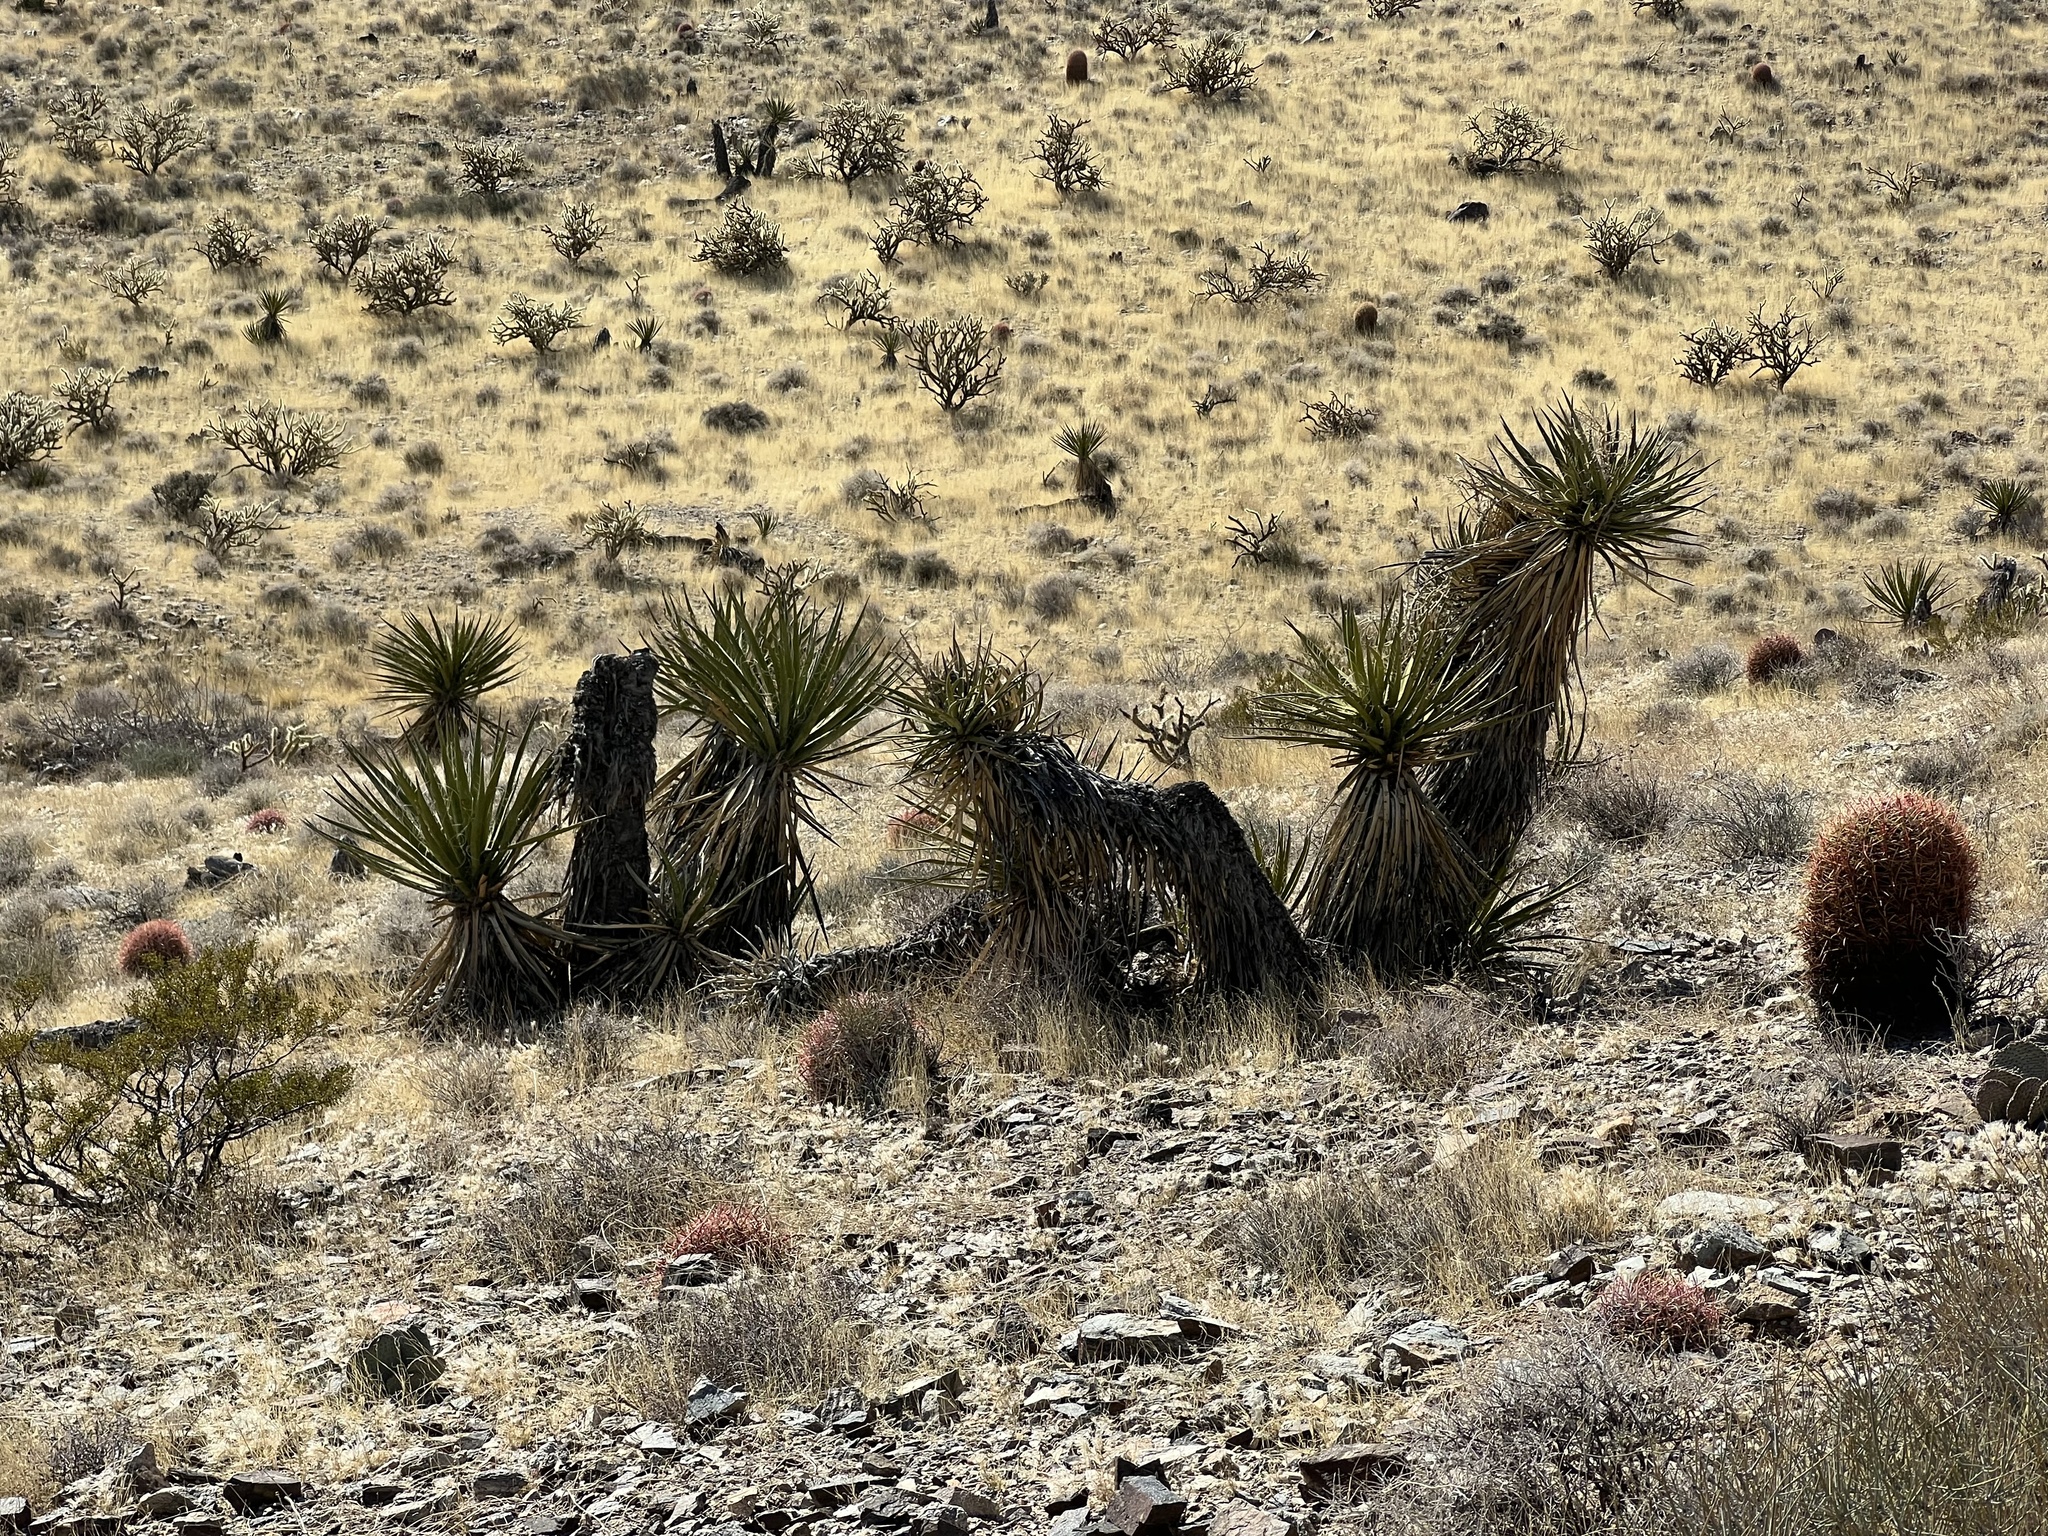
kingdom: Plantae
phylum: Tracheophyta
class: Liliopsida
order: Asparagales
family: Asparagaceae
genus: Yucca
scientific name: Yucca schidigera
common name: Mojave yucca
